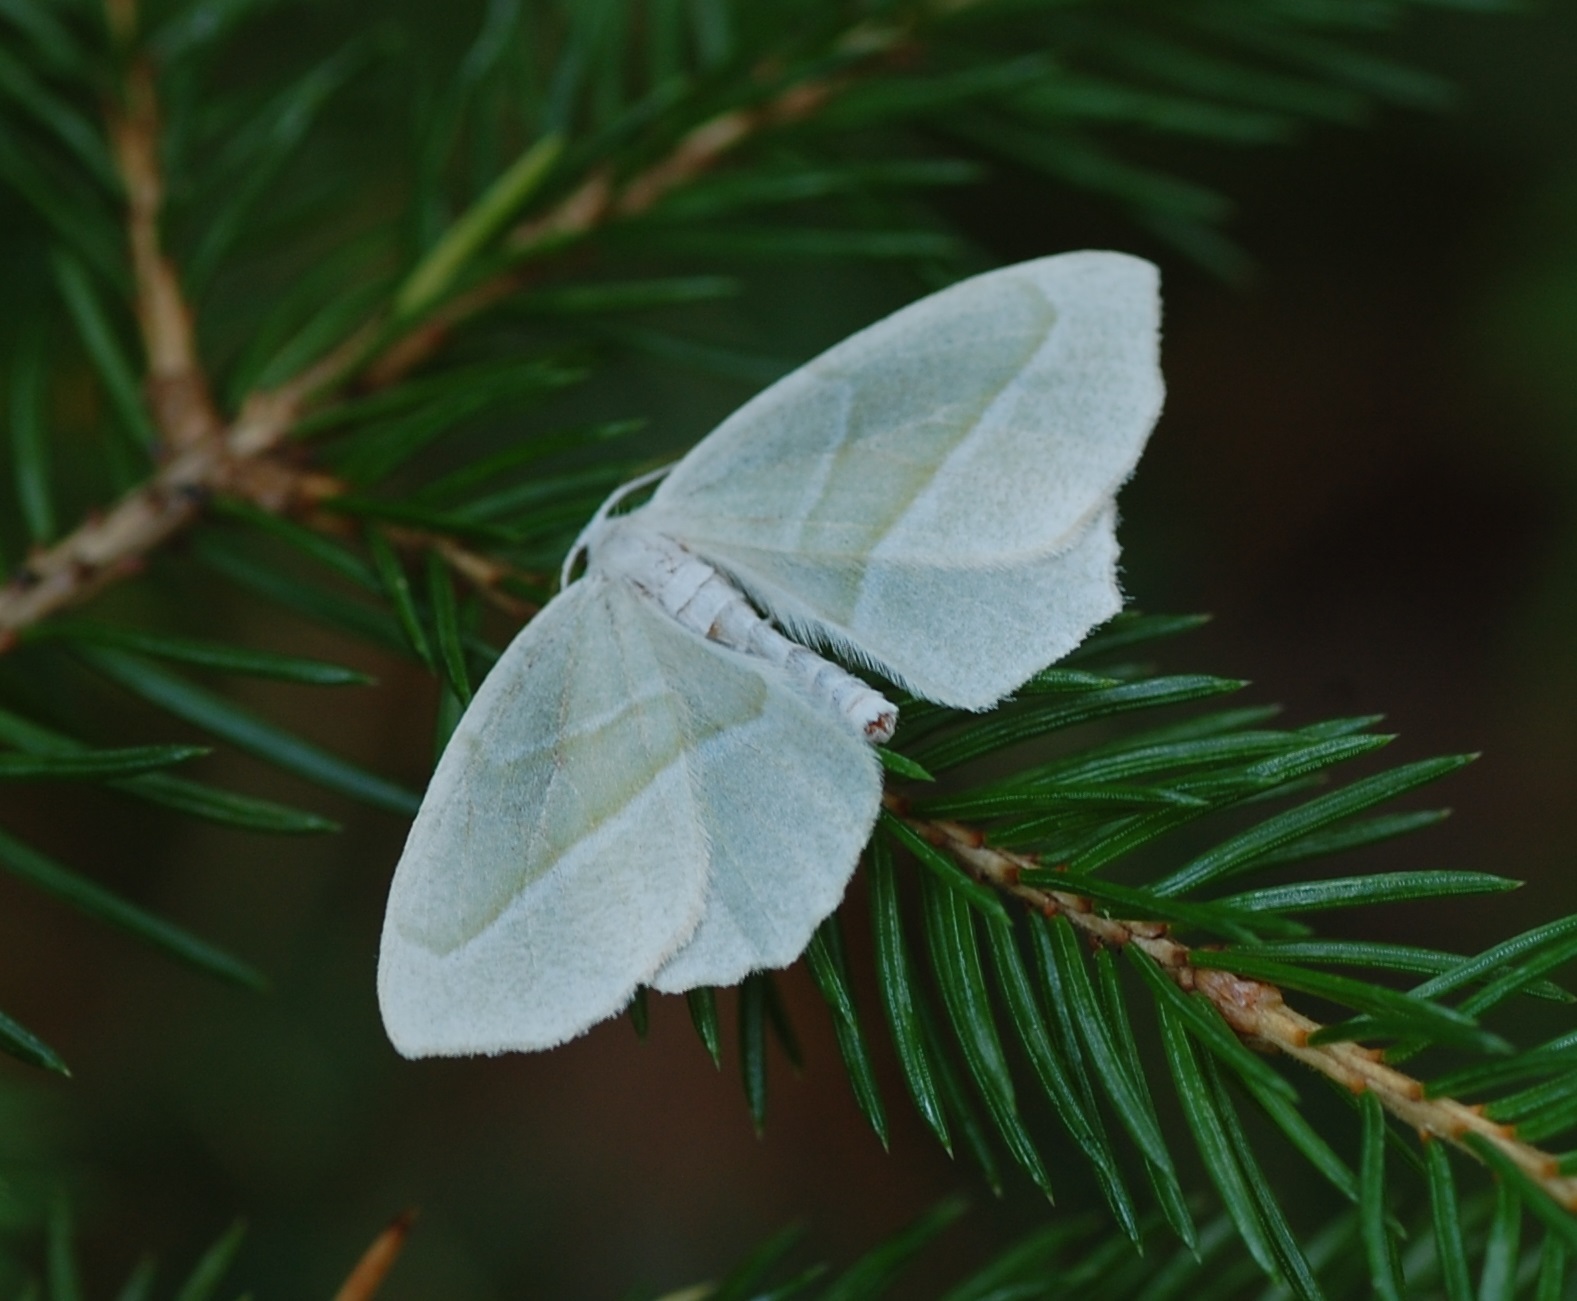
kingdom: Animalia
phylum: Arthropoda
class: Insecta
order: Lepidoptera
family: Geometridae
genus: Campaea
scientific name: Campaea perlata
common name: Fringed looper
